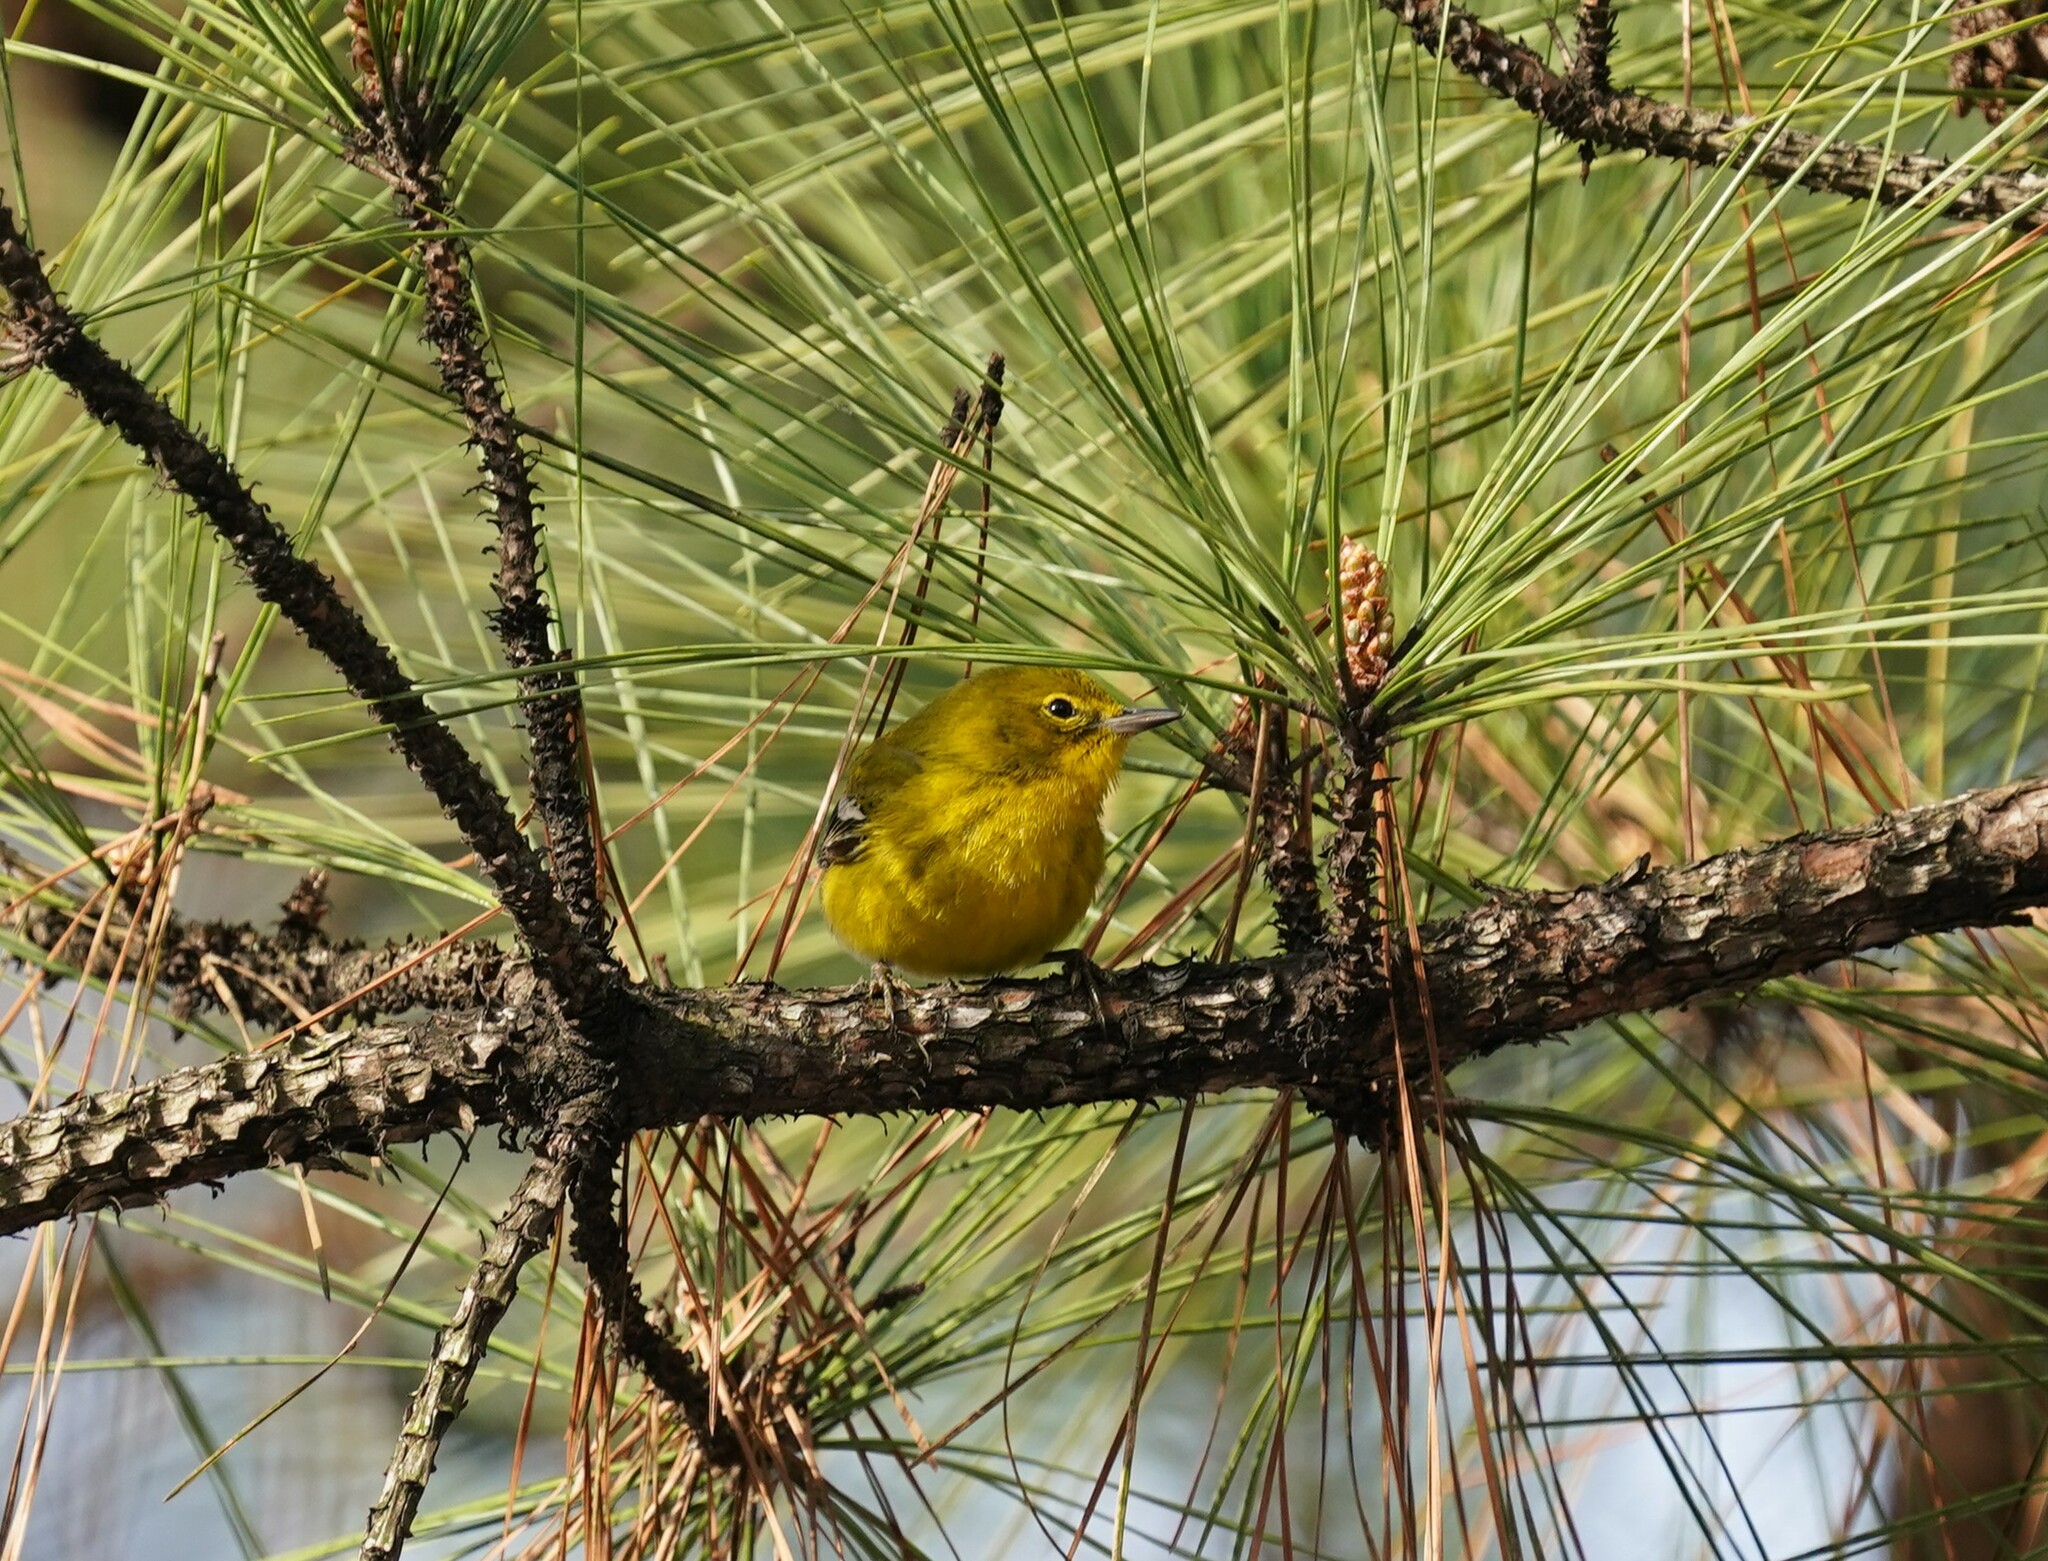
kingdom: Animalia
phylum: Chordata
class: Aves
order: Passeriformes
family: Parulidae
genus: Setophaga
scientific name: Setophaga pinus
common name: Pine warbler
